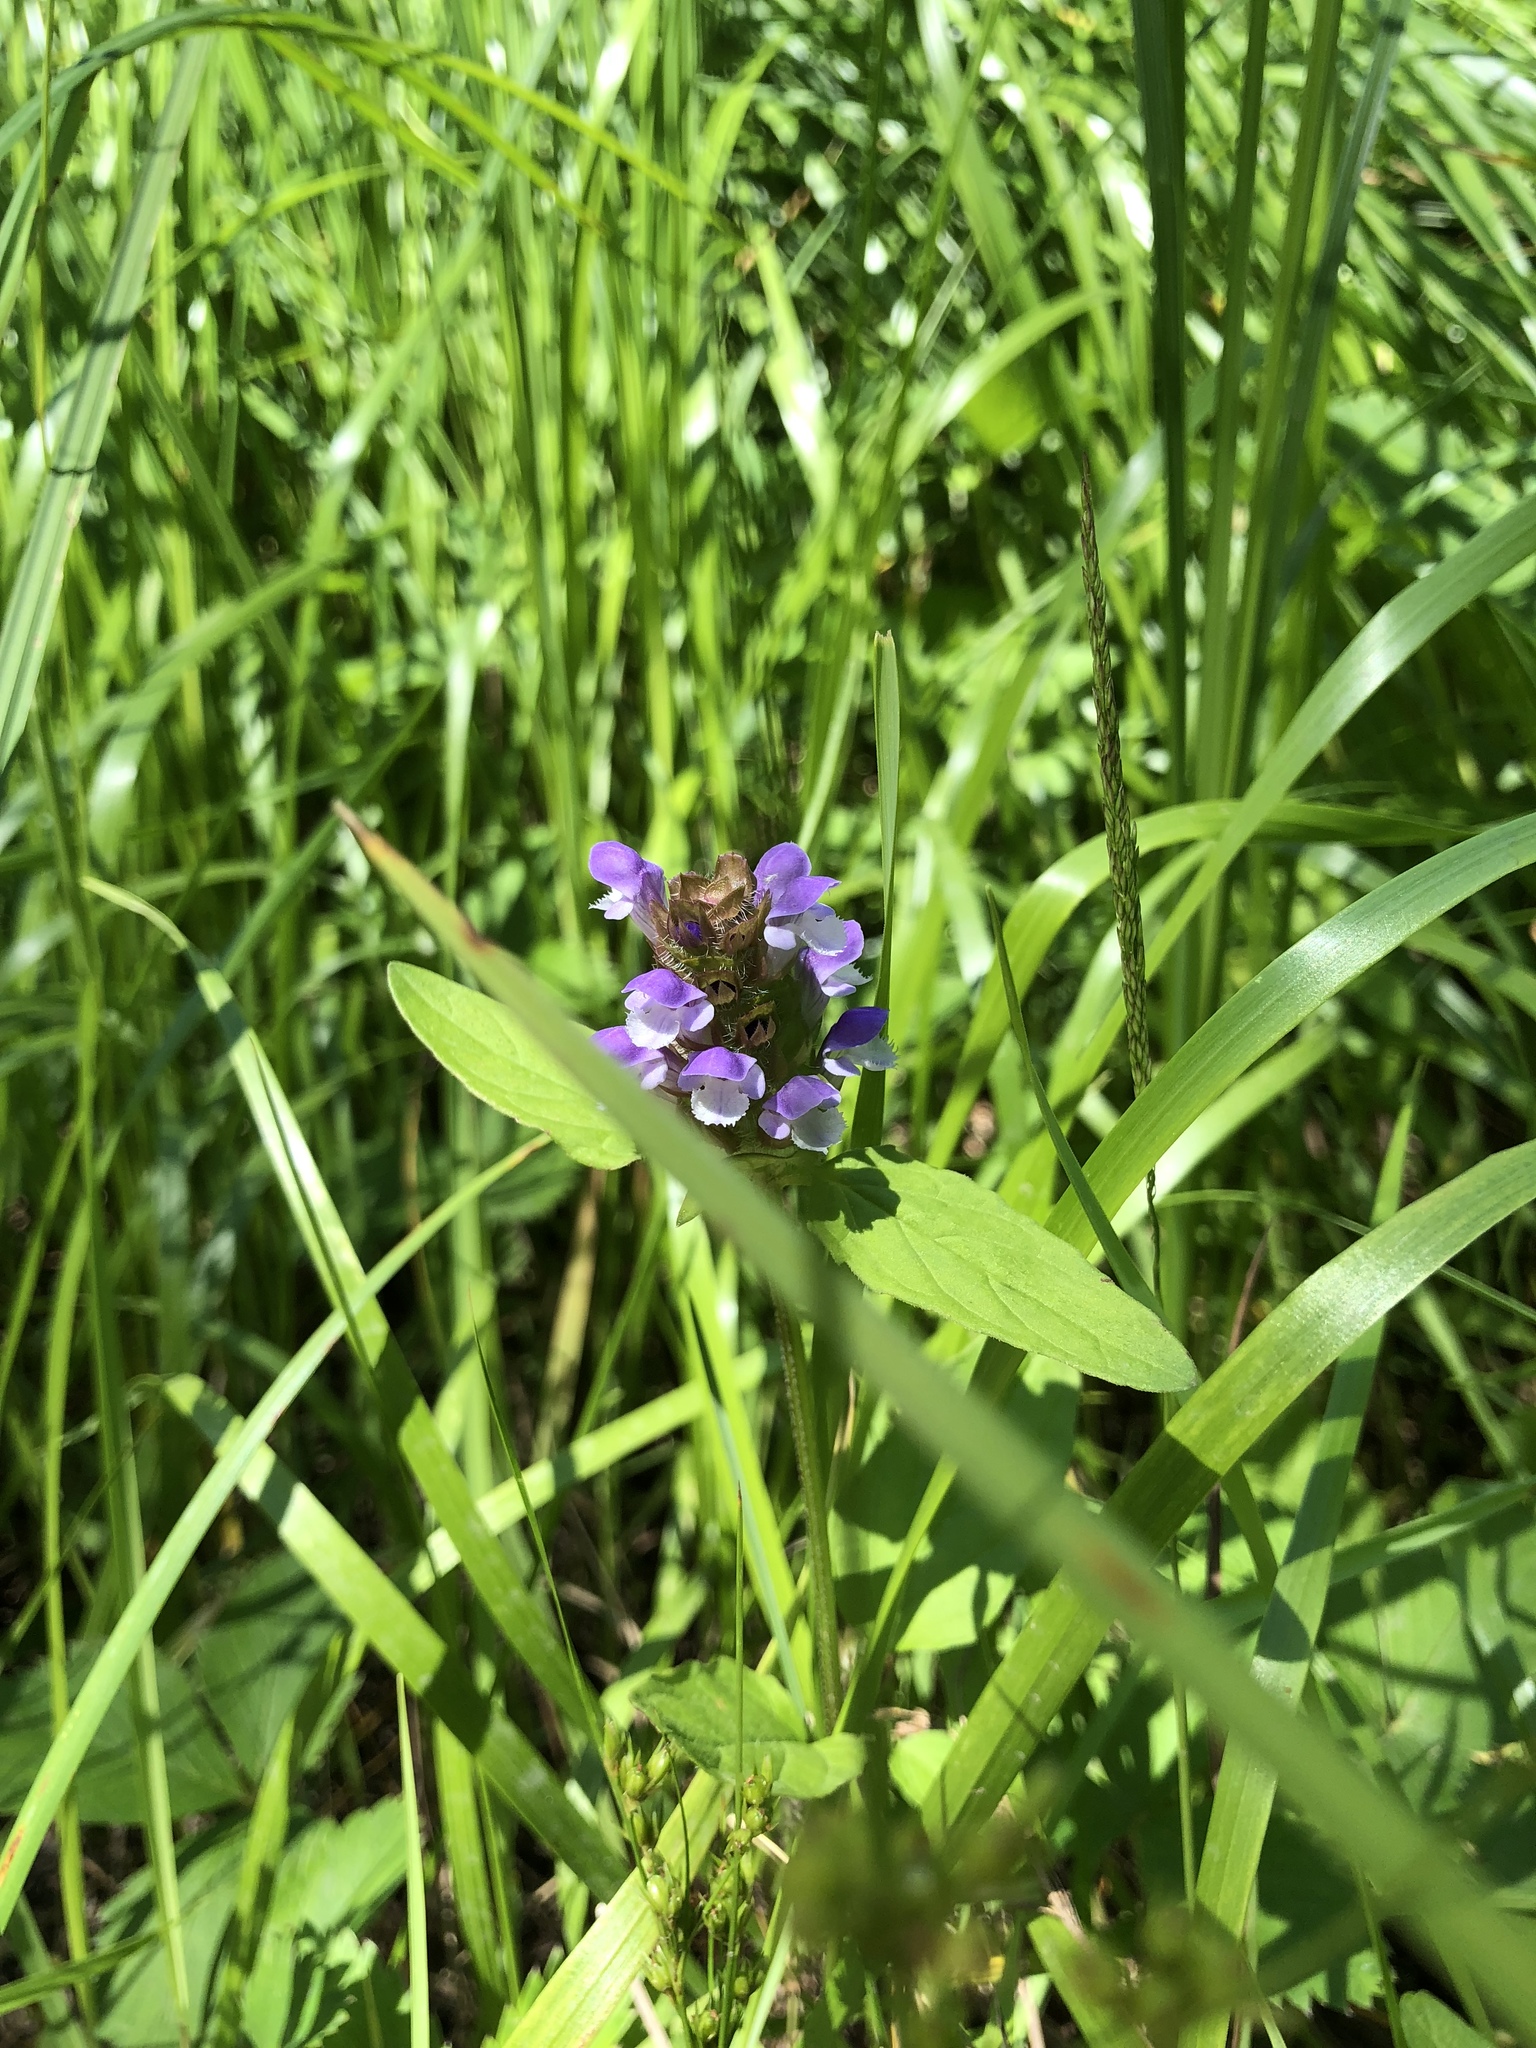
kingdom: Plantae
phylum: Tracheophyta
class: Magnoliopsida
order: Lamiales
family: Lamiaceae
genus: Prunella
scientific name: Prunella vulgaris
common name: Heal-all
